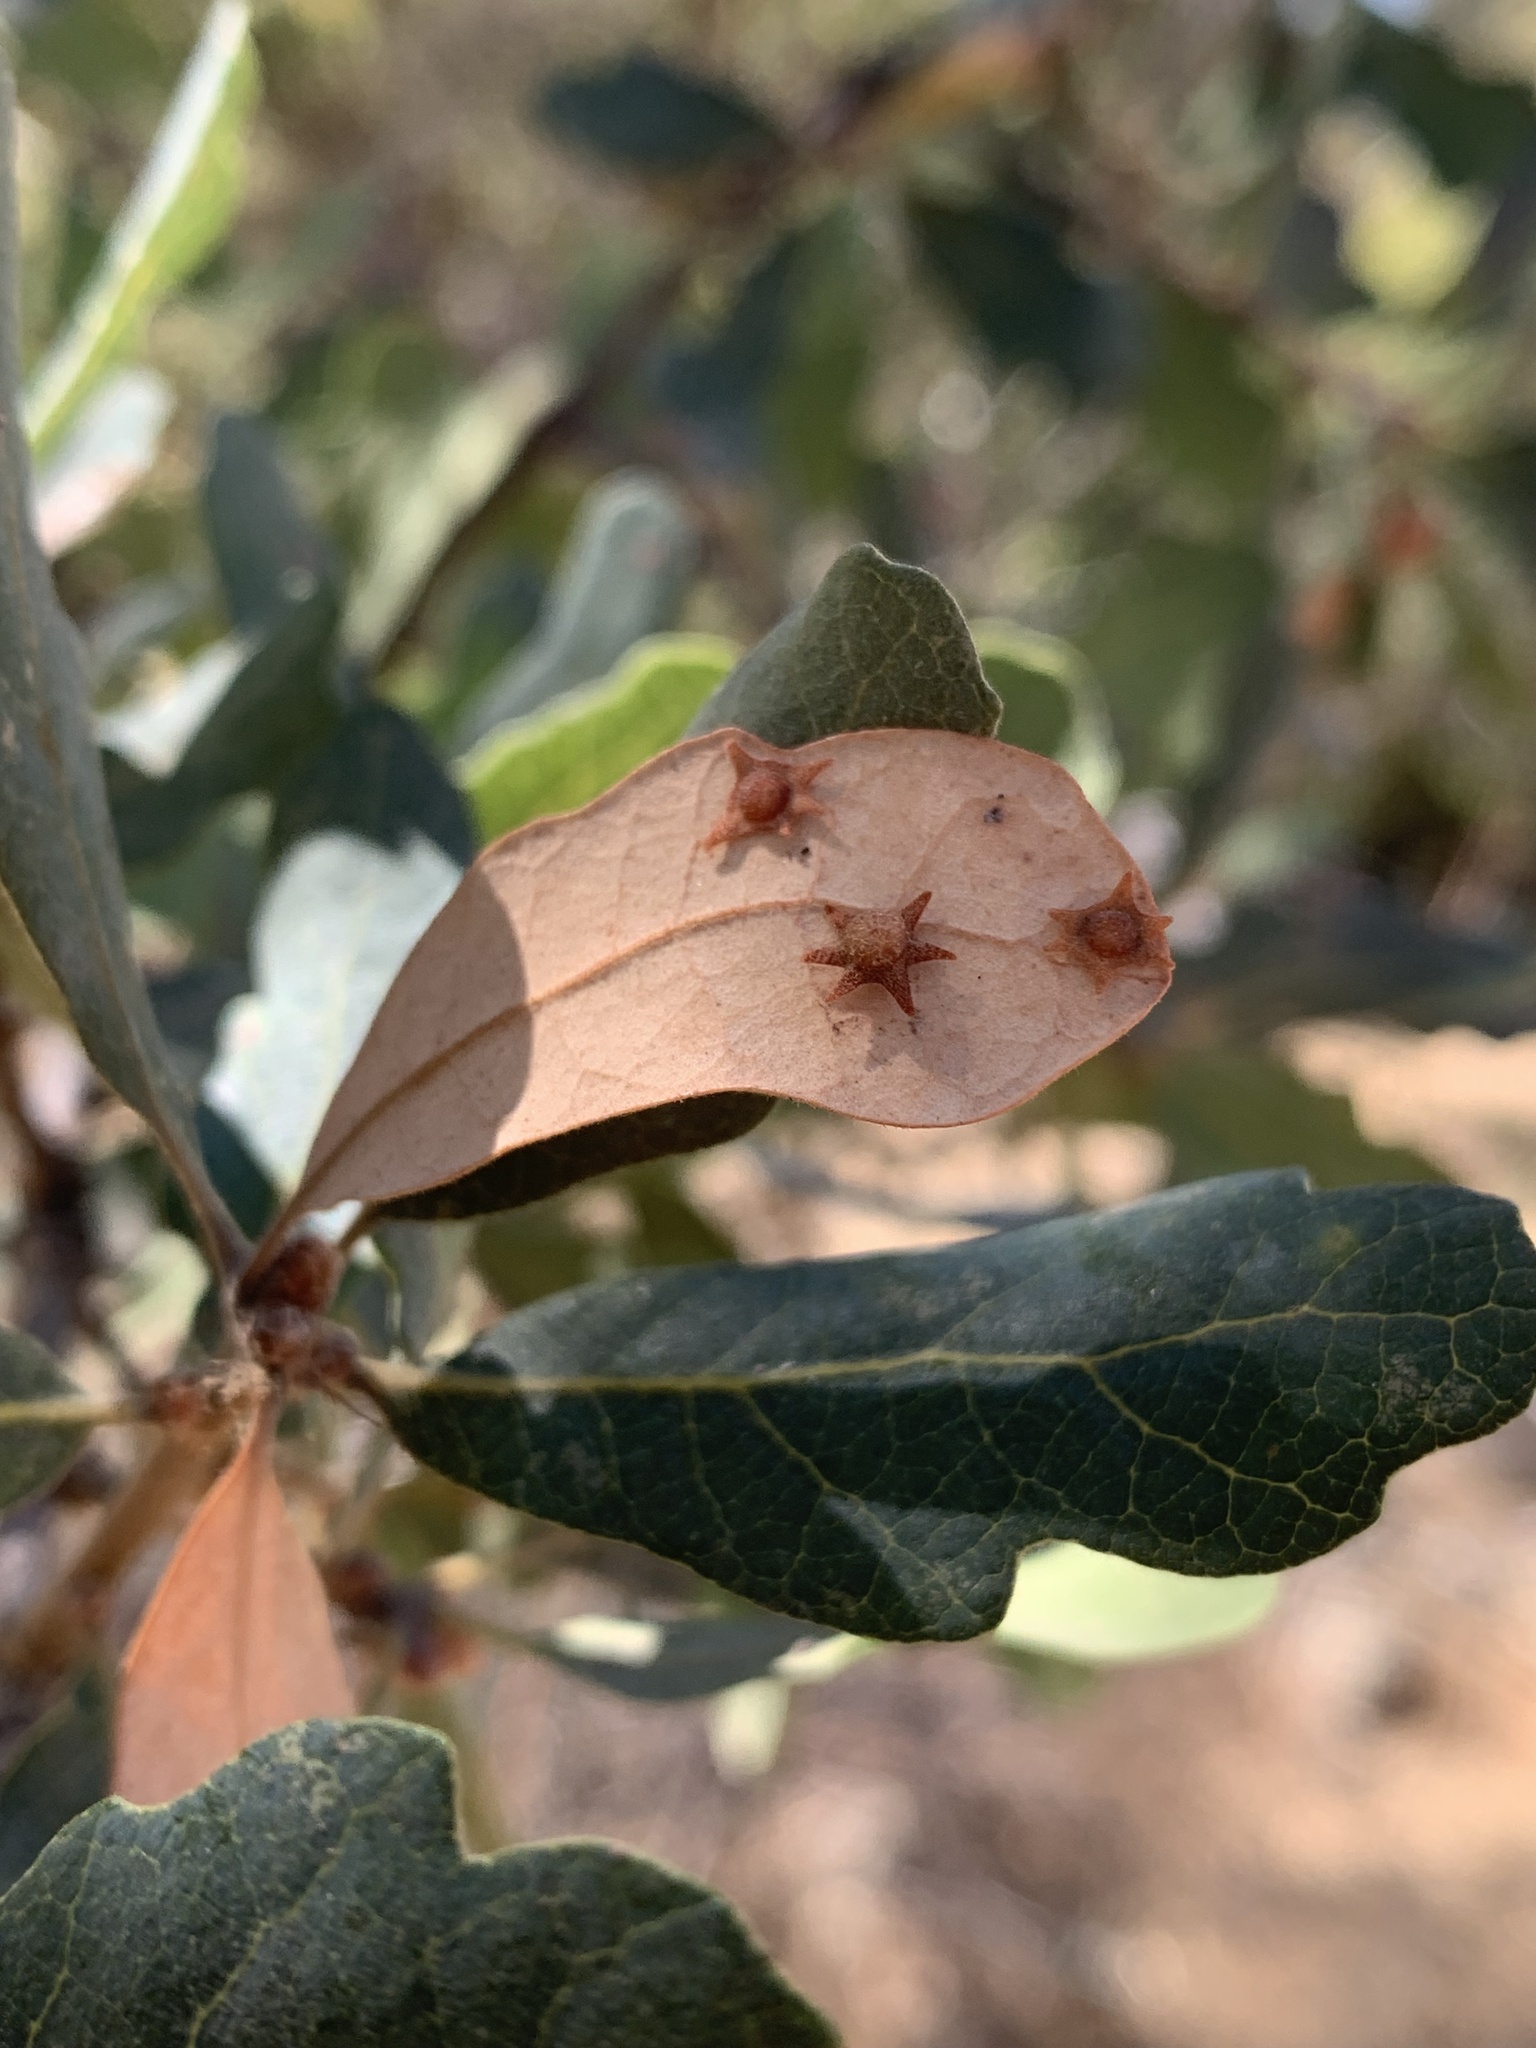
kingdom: Animalia
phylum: Arthropoda
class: Insecta
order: Hymenoptera
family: Cynipidae
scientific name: Cynipidae
